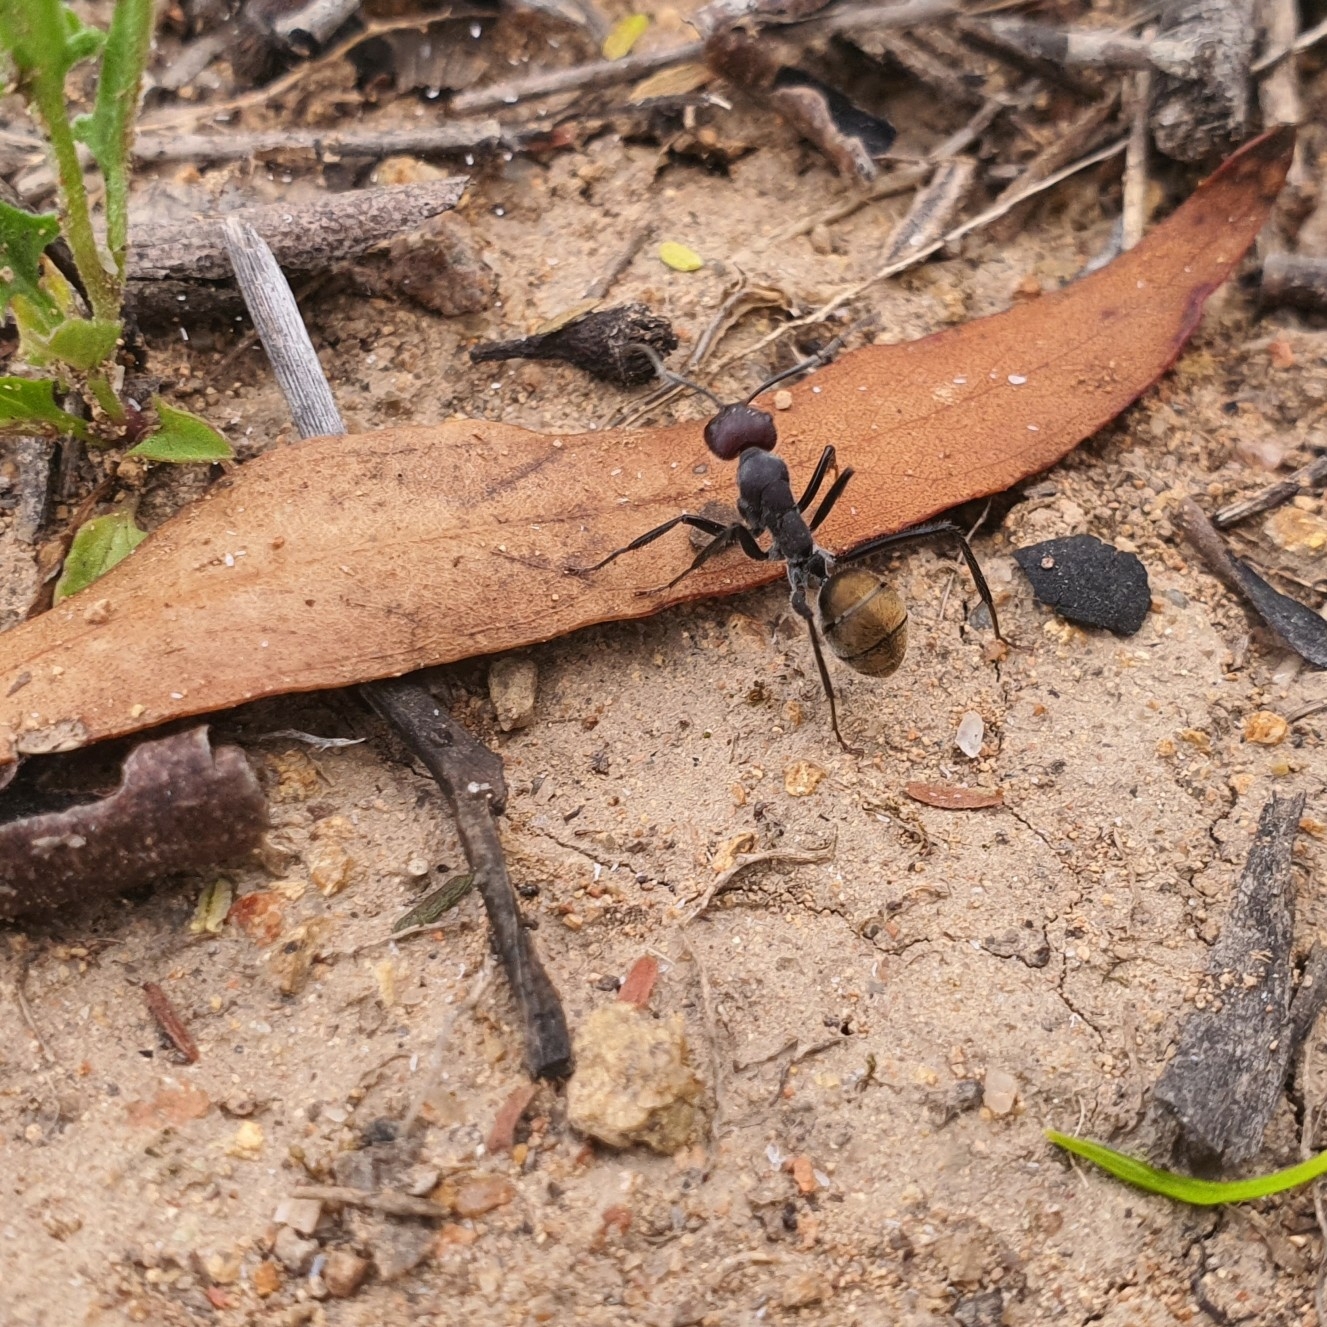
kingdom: Animalia
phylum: Arthropoda
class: Insecta
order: Hymenoptera
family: Formicidae
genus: Camponotus
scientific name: Camponotus suffusus
